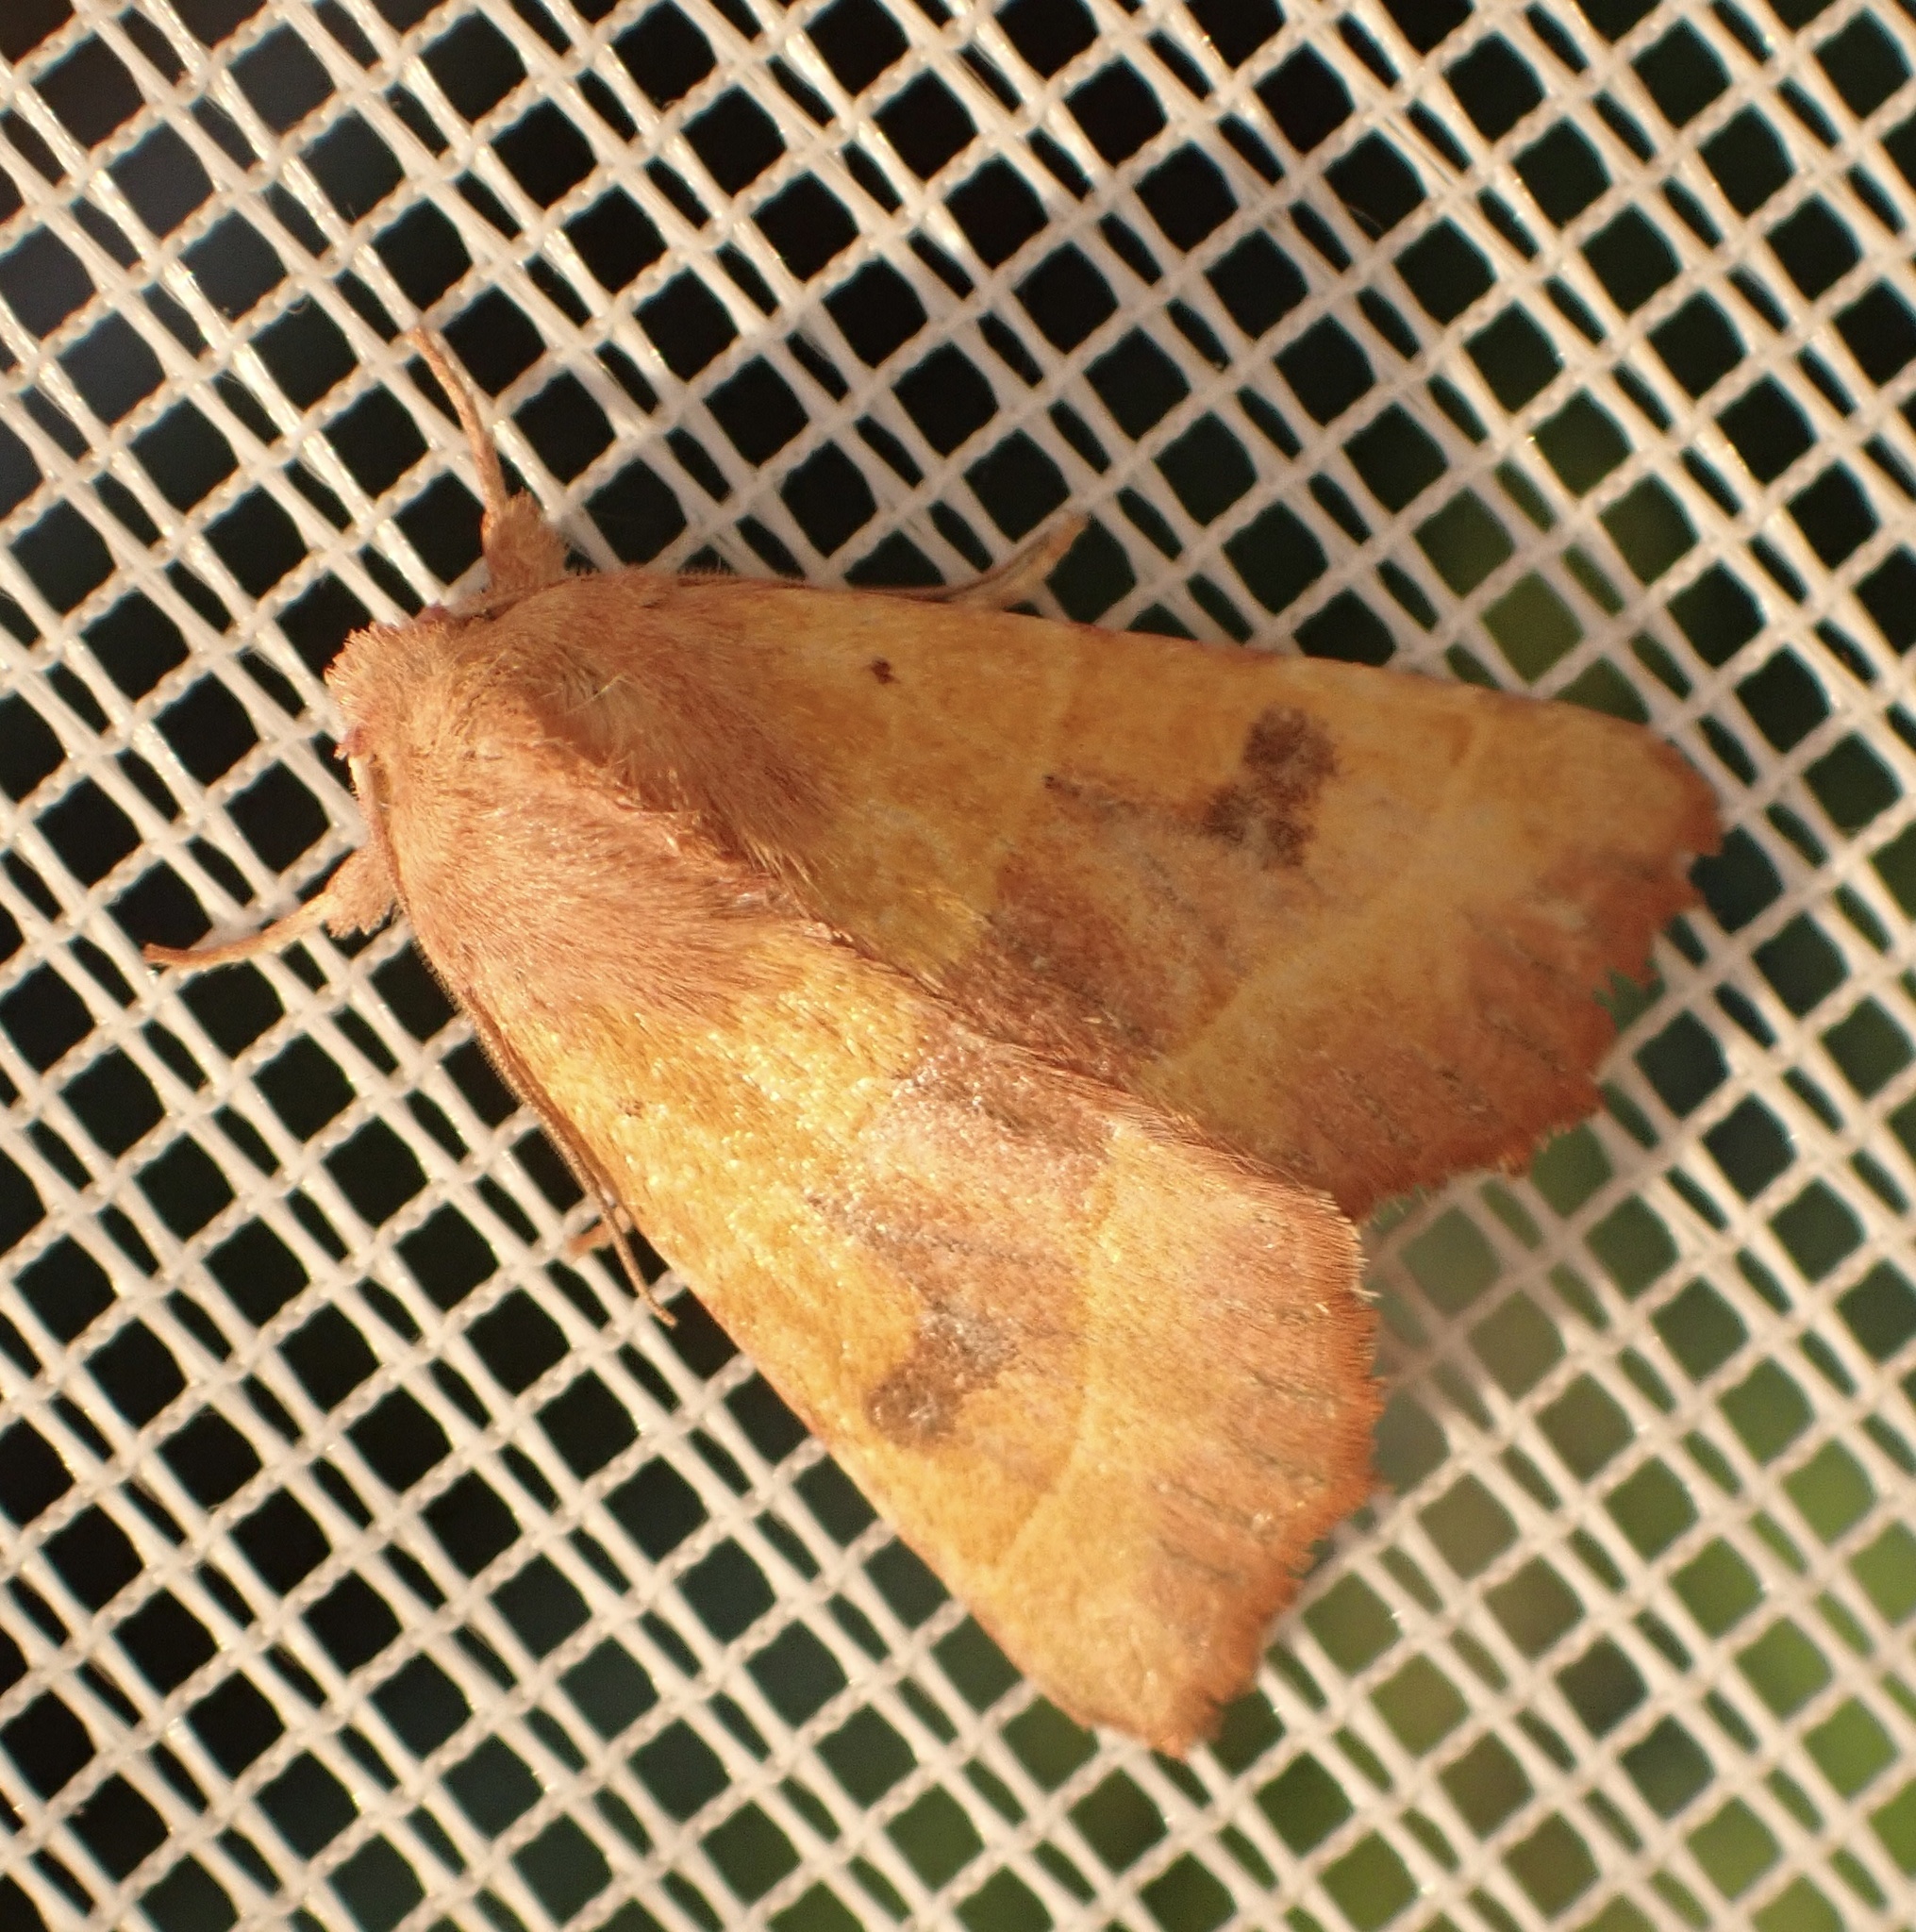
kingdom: Animalia
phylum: Arthropoda
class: Insecta
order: Lepidoptera
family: Noctuidae
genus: Atethmia
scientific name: Atethmia centrago
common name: Centre-barred sallow
